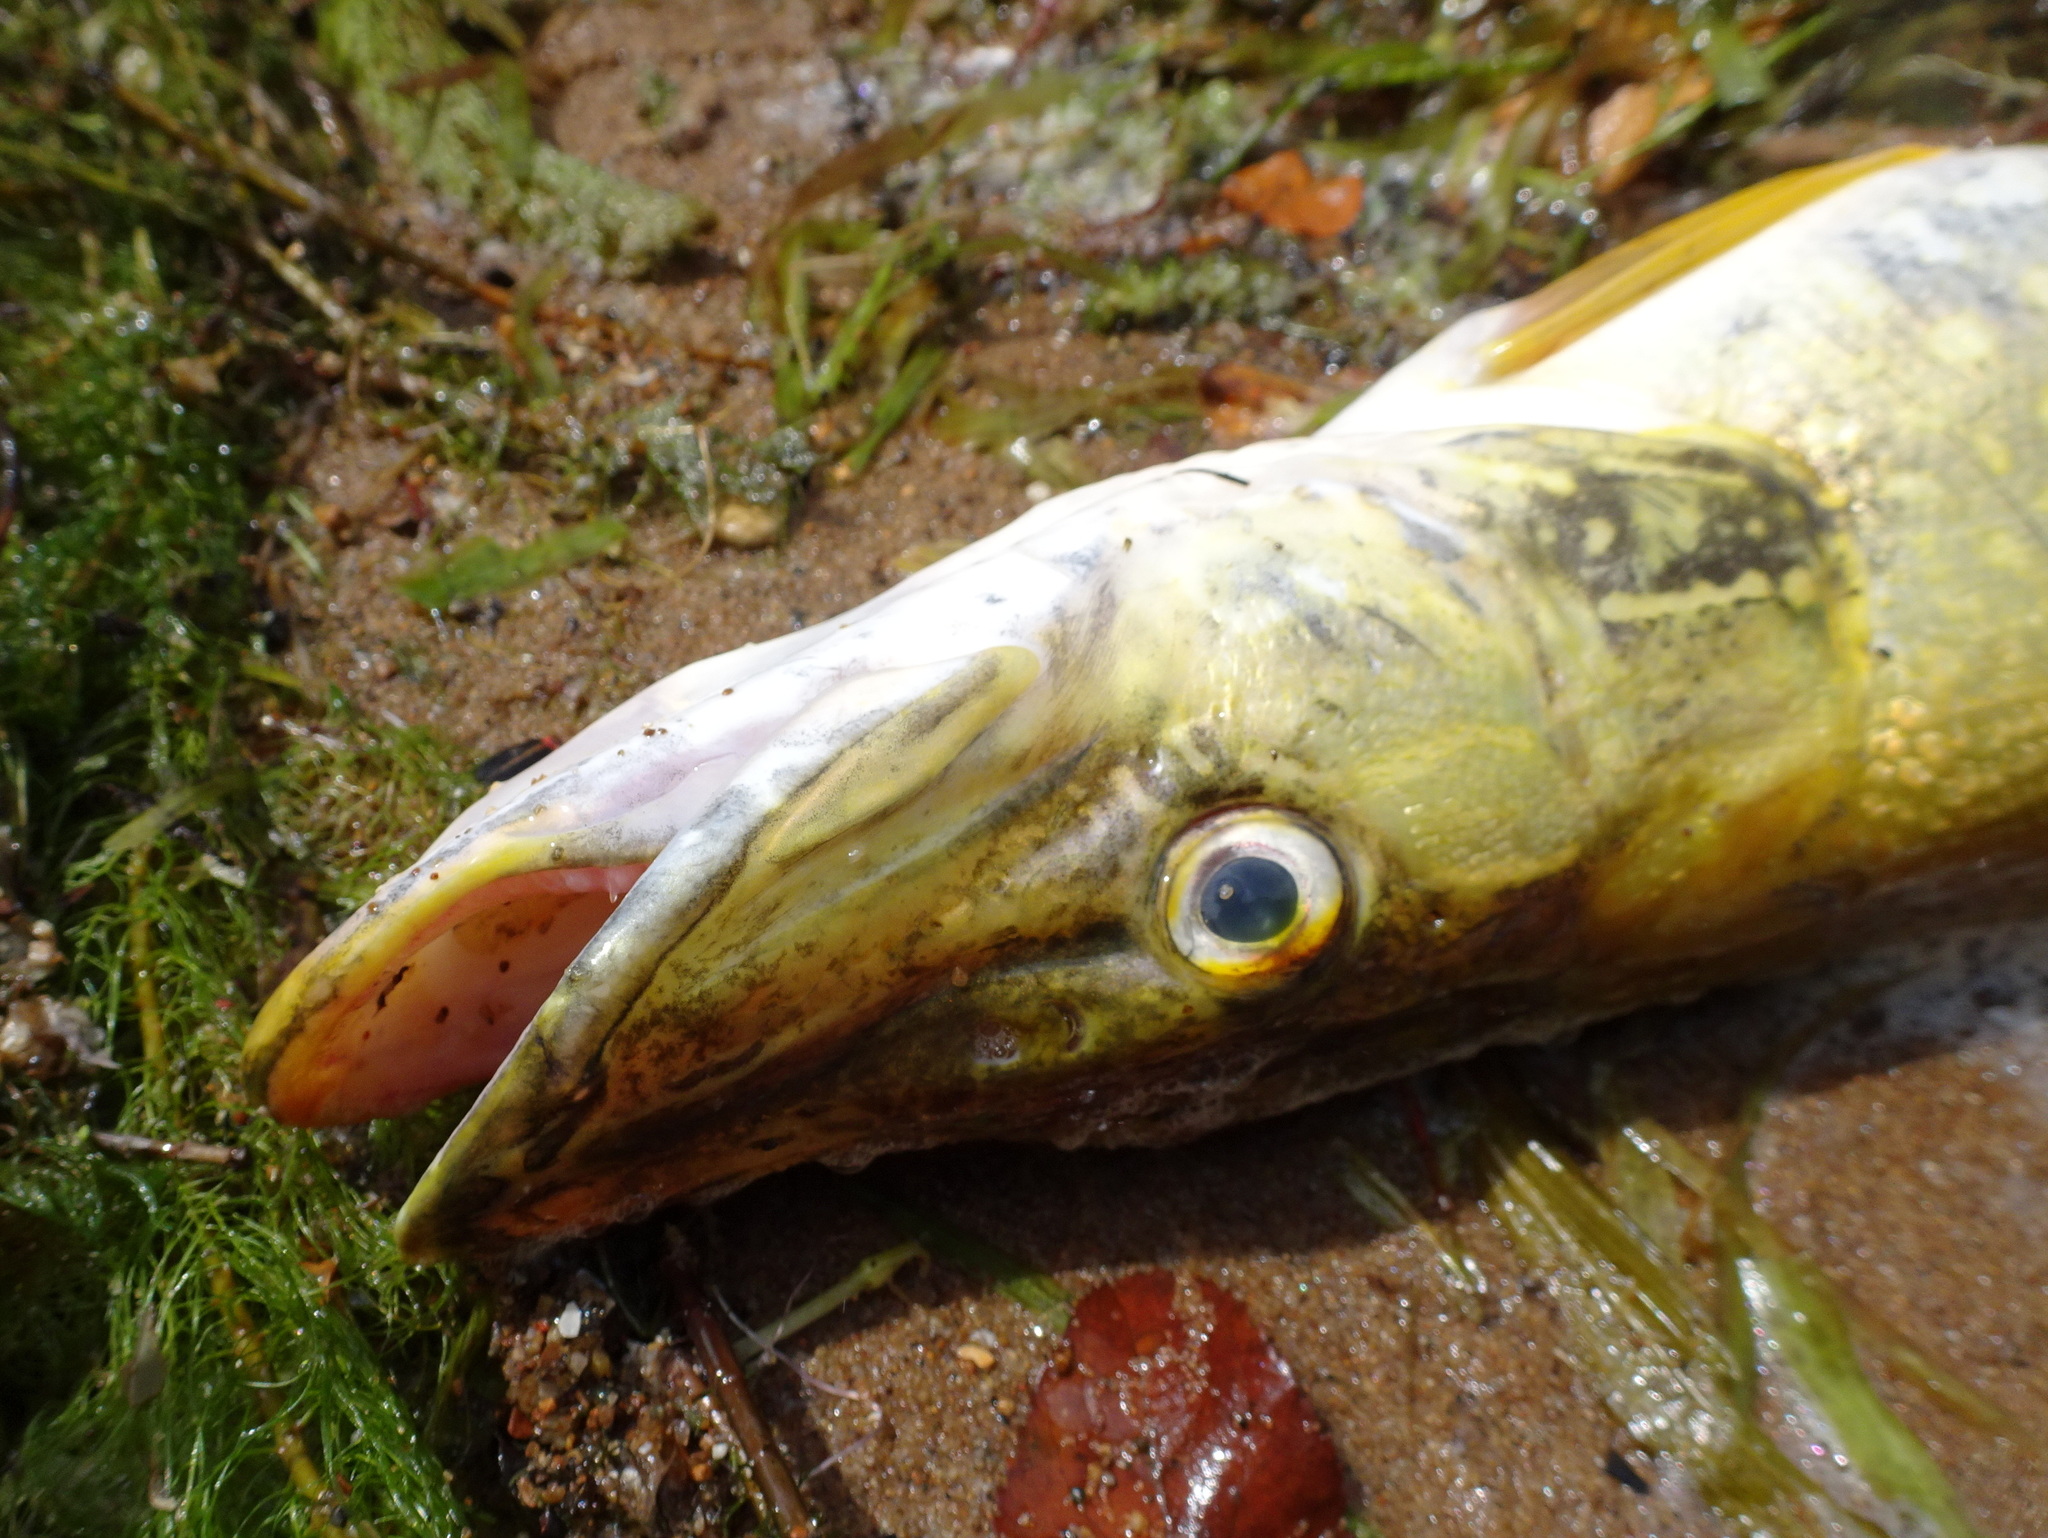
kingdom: Animalia
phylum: Chordata
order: Esociformes
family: Esocidae
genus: Esox
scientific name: Esox lucius
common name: Northern pike
